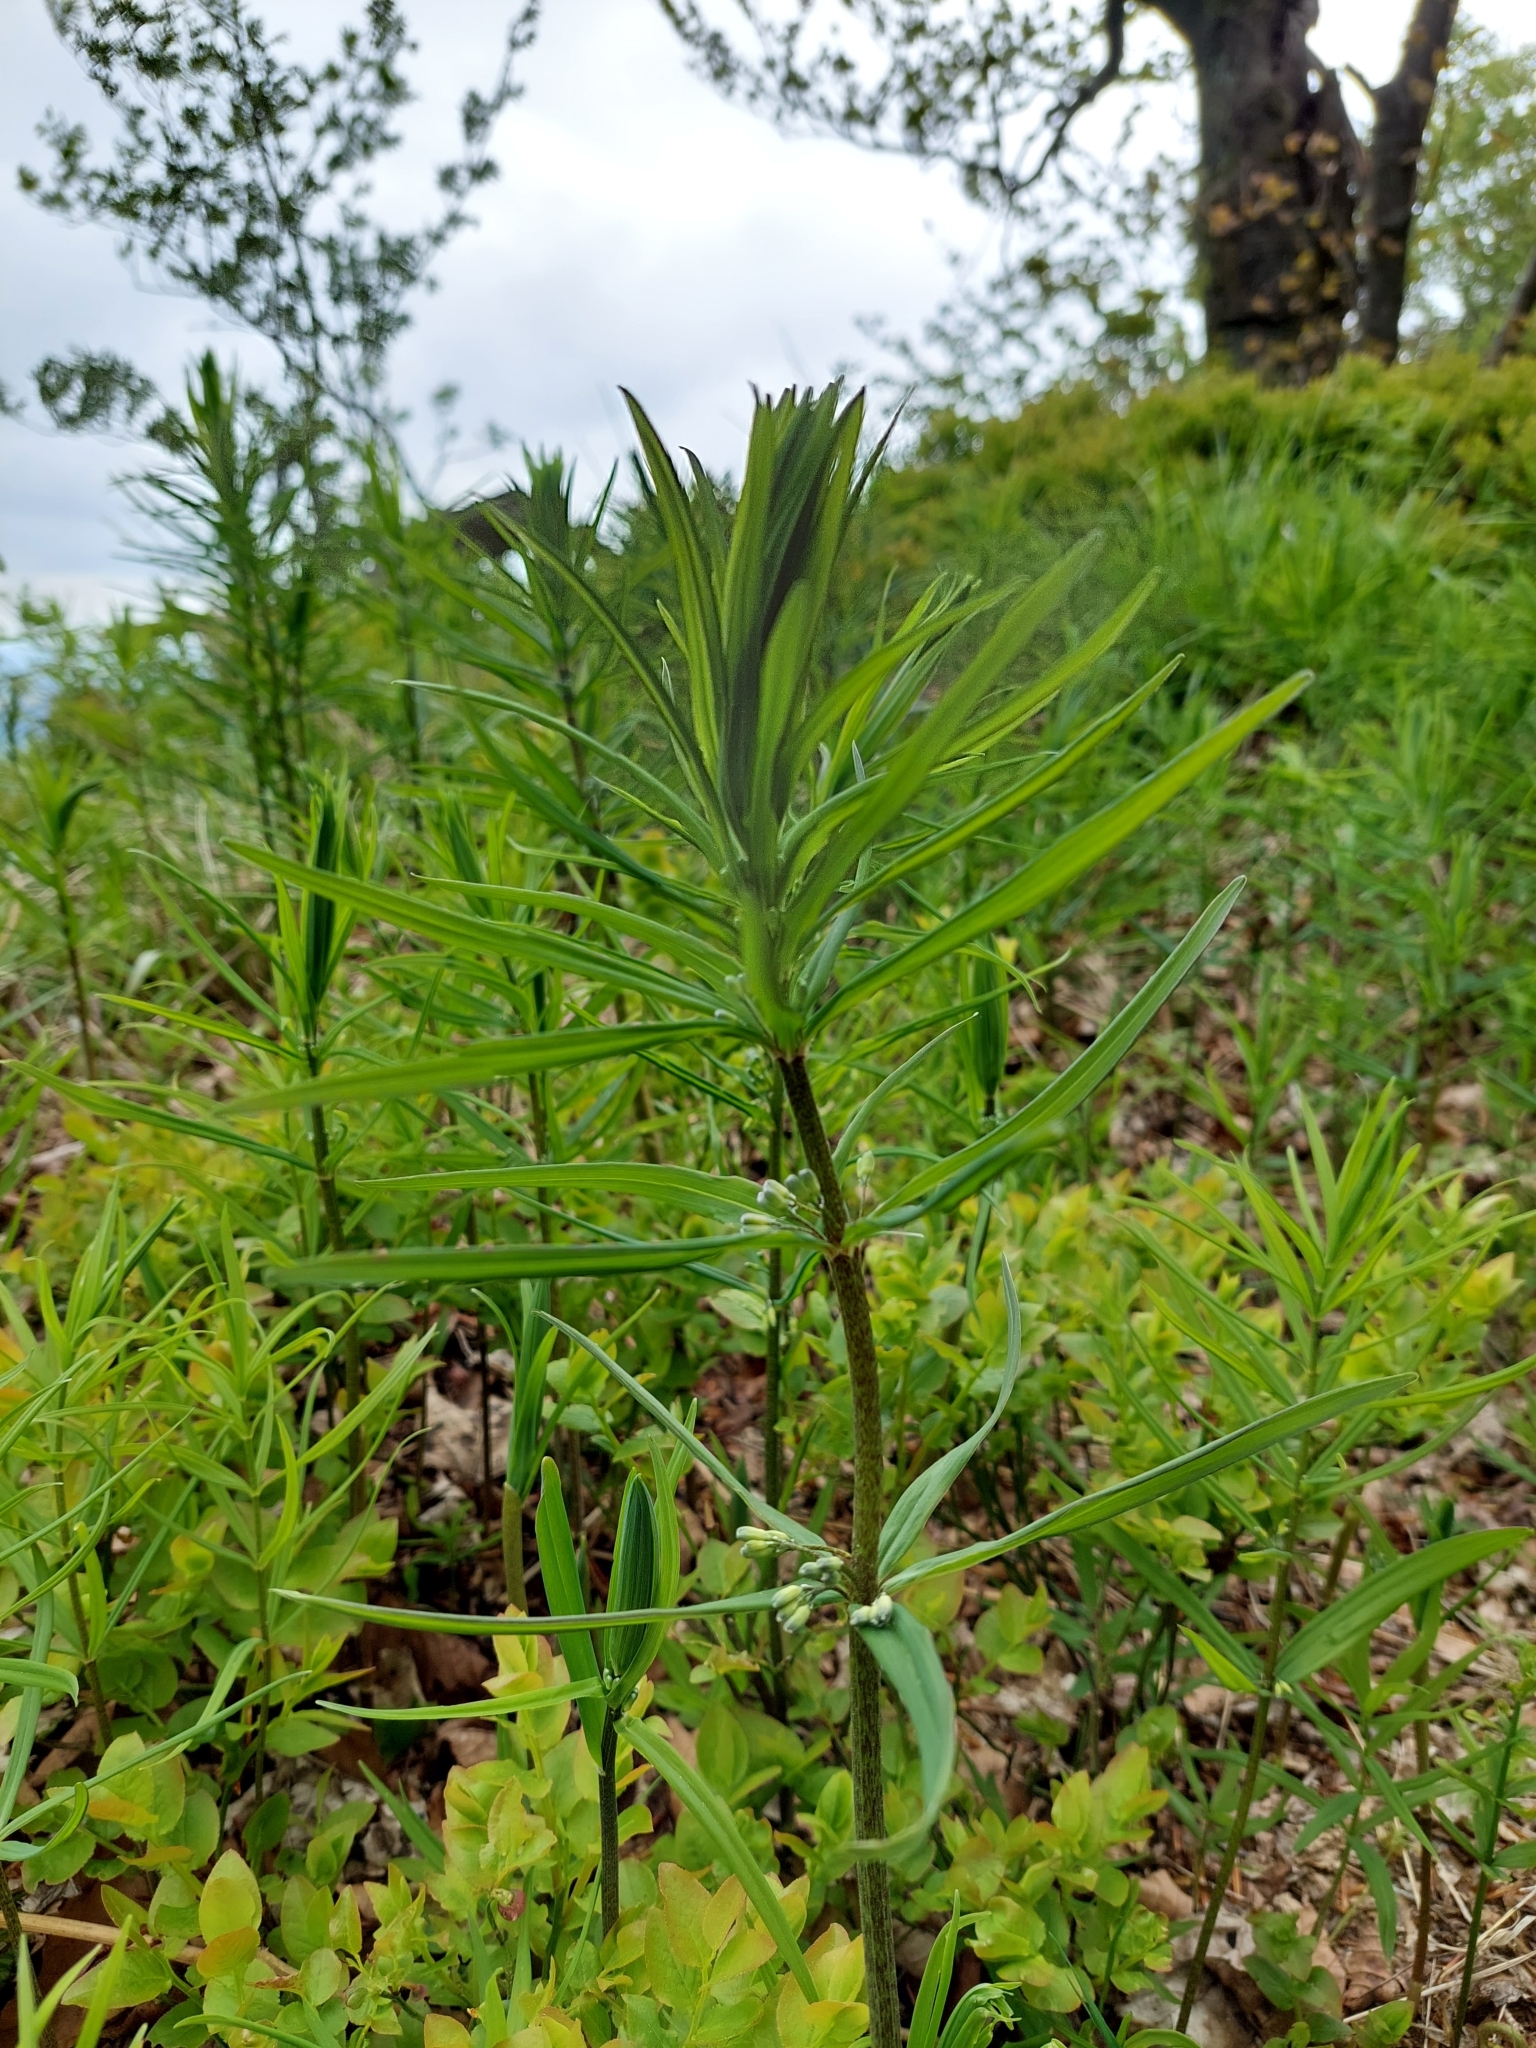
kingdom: Plantae
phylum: Tracheophyta
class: Liliopsida
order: Asparagales
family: Asparagaceae
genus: Polygonatum
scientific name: Polygonatum verticillatum
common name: Whorled solomon's-seal
